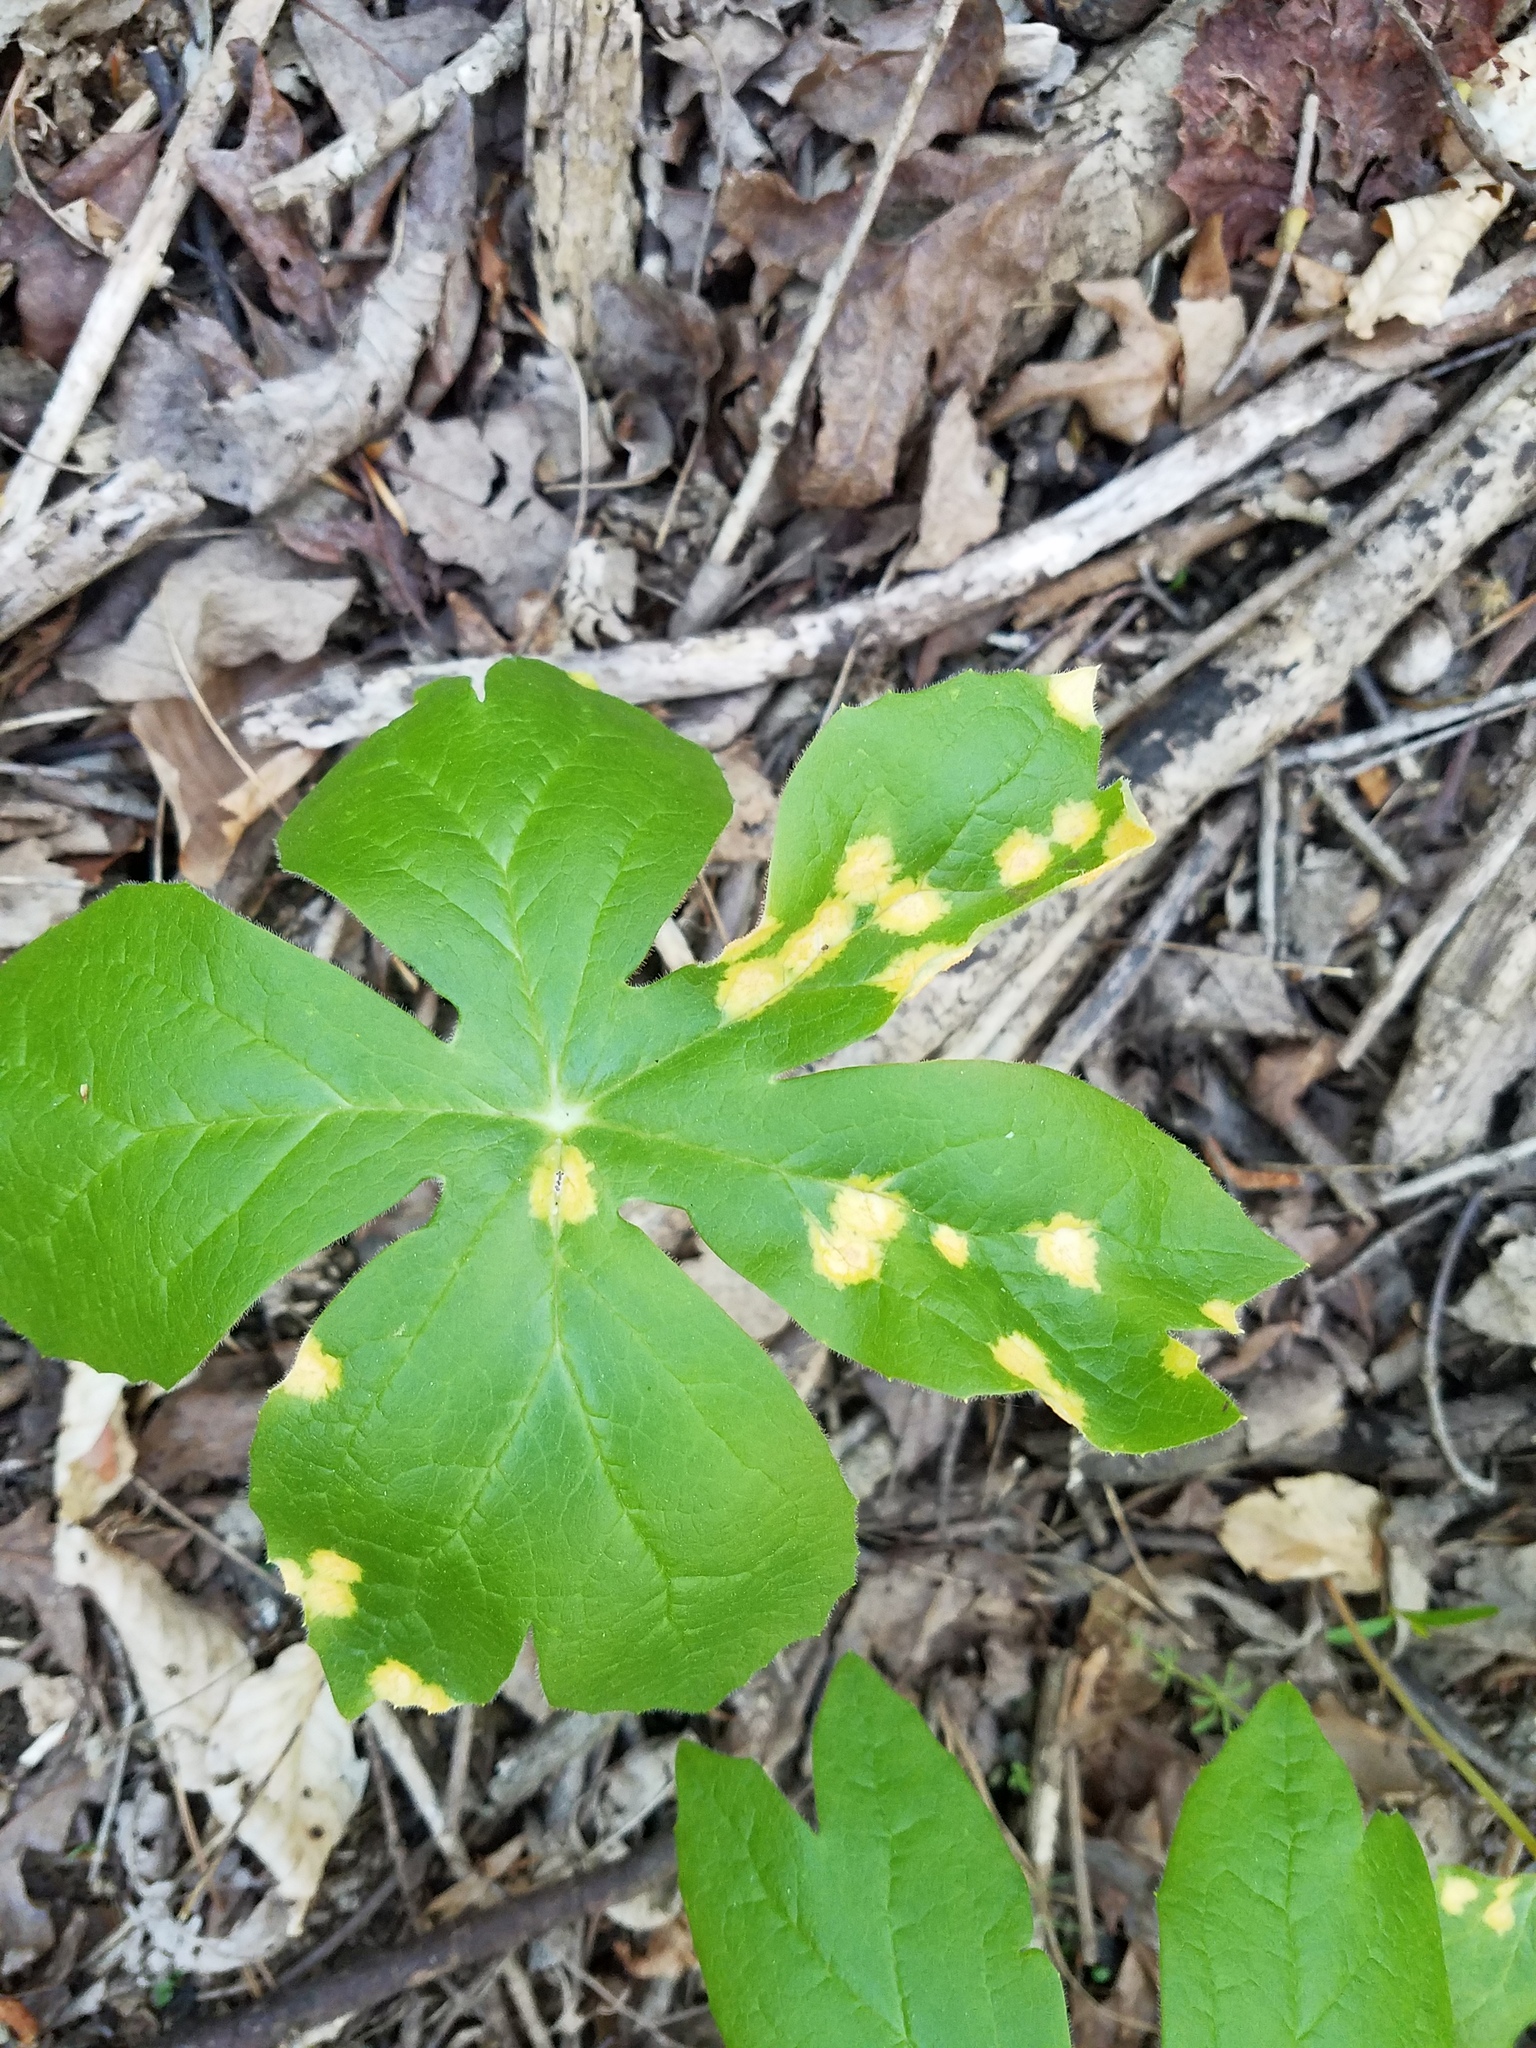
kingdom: Fungi
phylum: Basidiomycota
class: Pucciniomycetes
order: Pucciniales
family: Pucciniaceae
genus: Puccinia
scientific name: Puccinia podophylli
